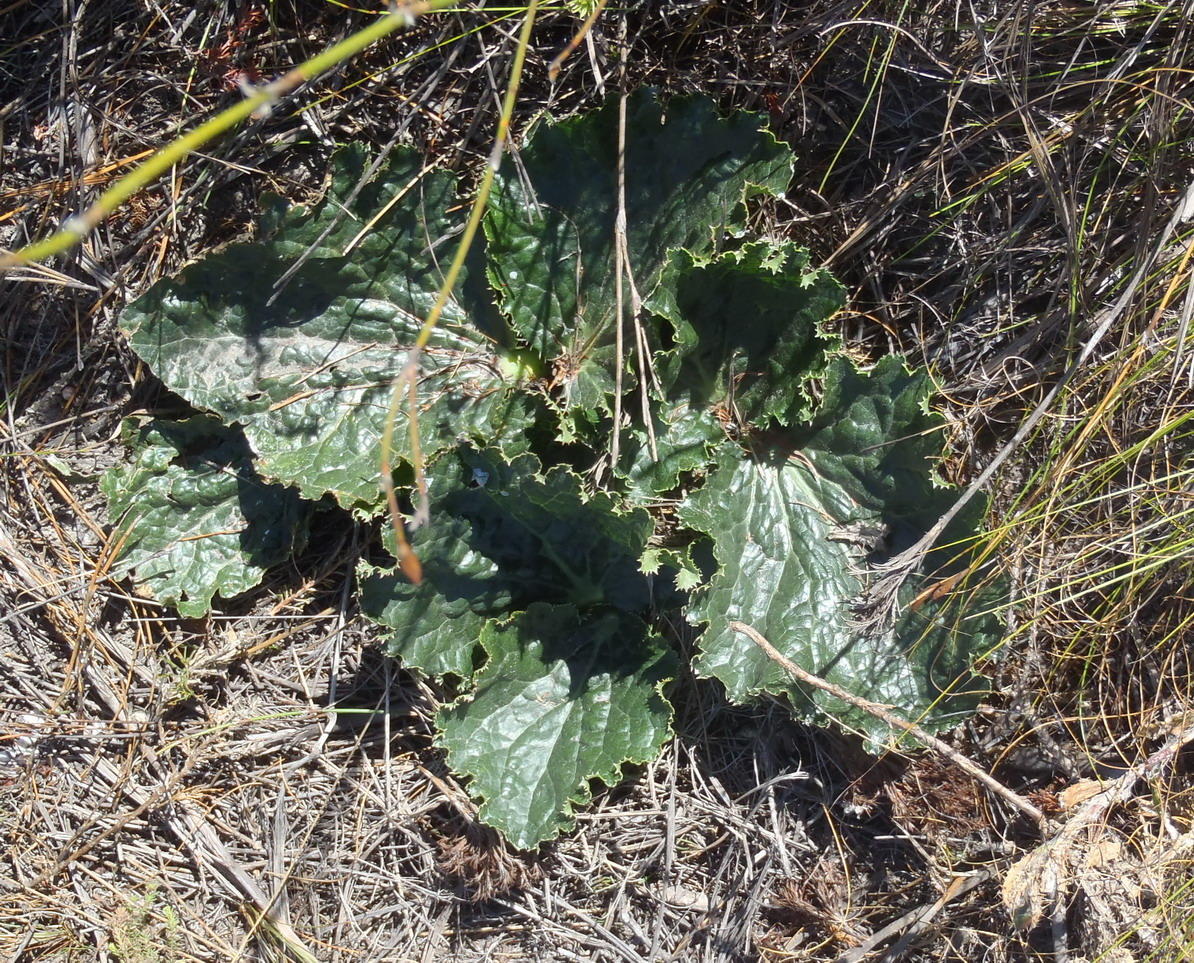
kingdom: Plantae
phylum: Tracheophyta
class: Magnoliopsida
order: Apiales
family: Apiaceae
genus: Lichtensteinia
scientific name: Lichtensteinia latifolia
